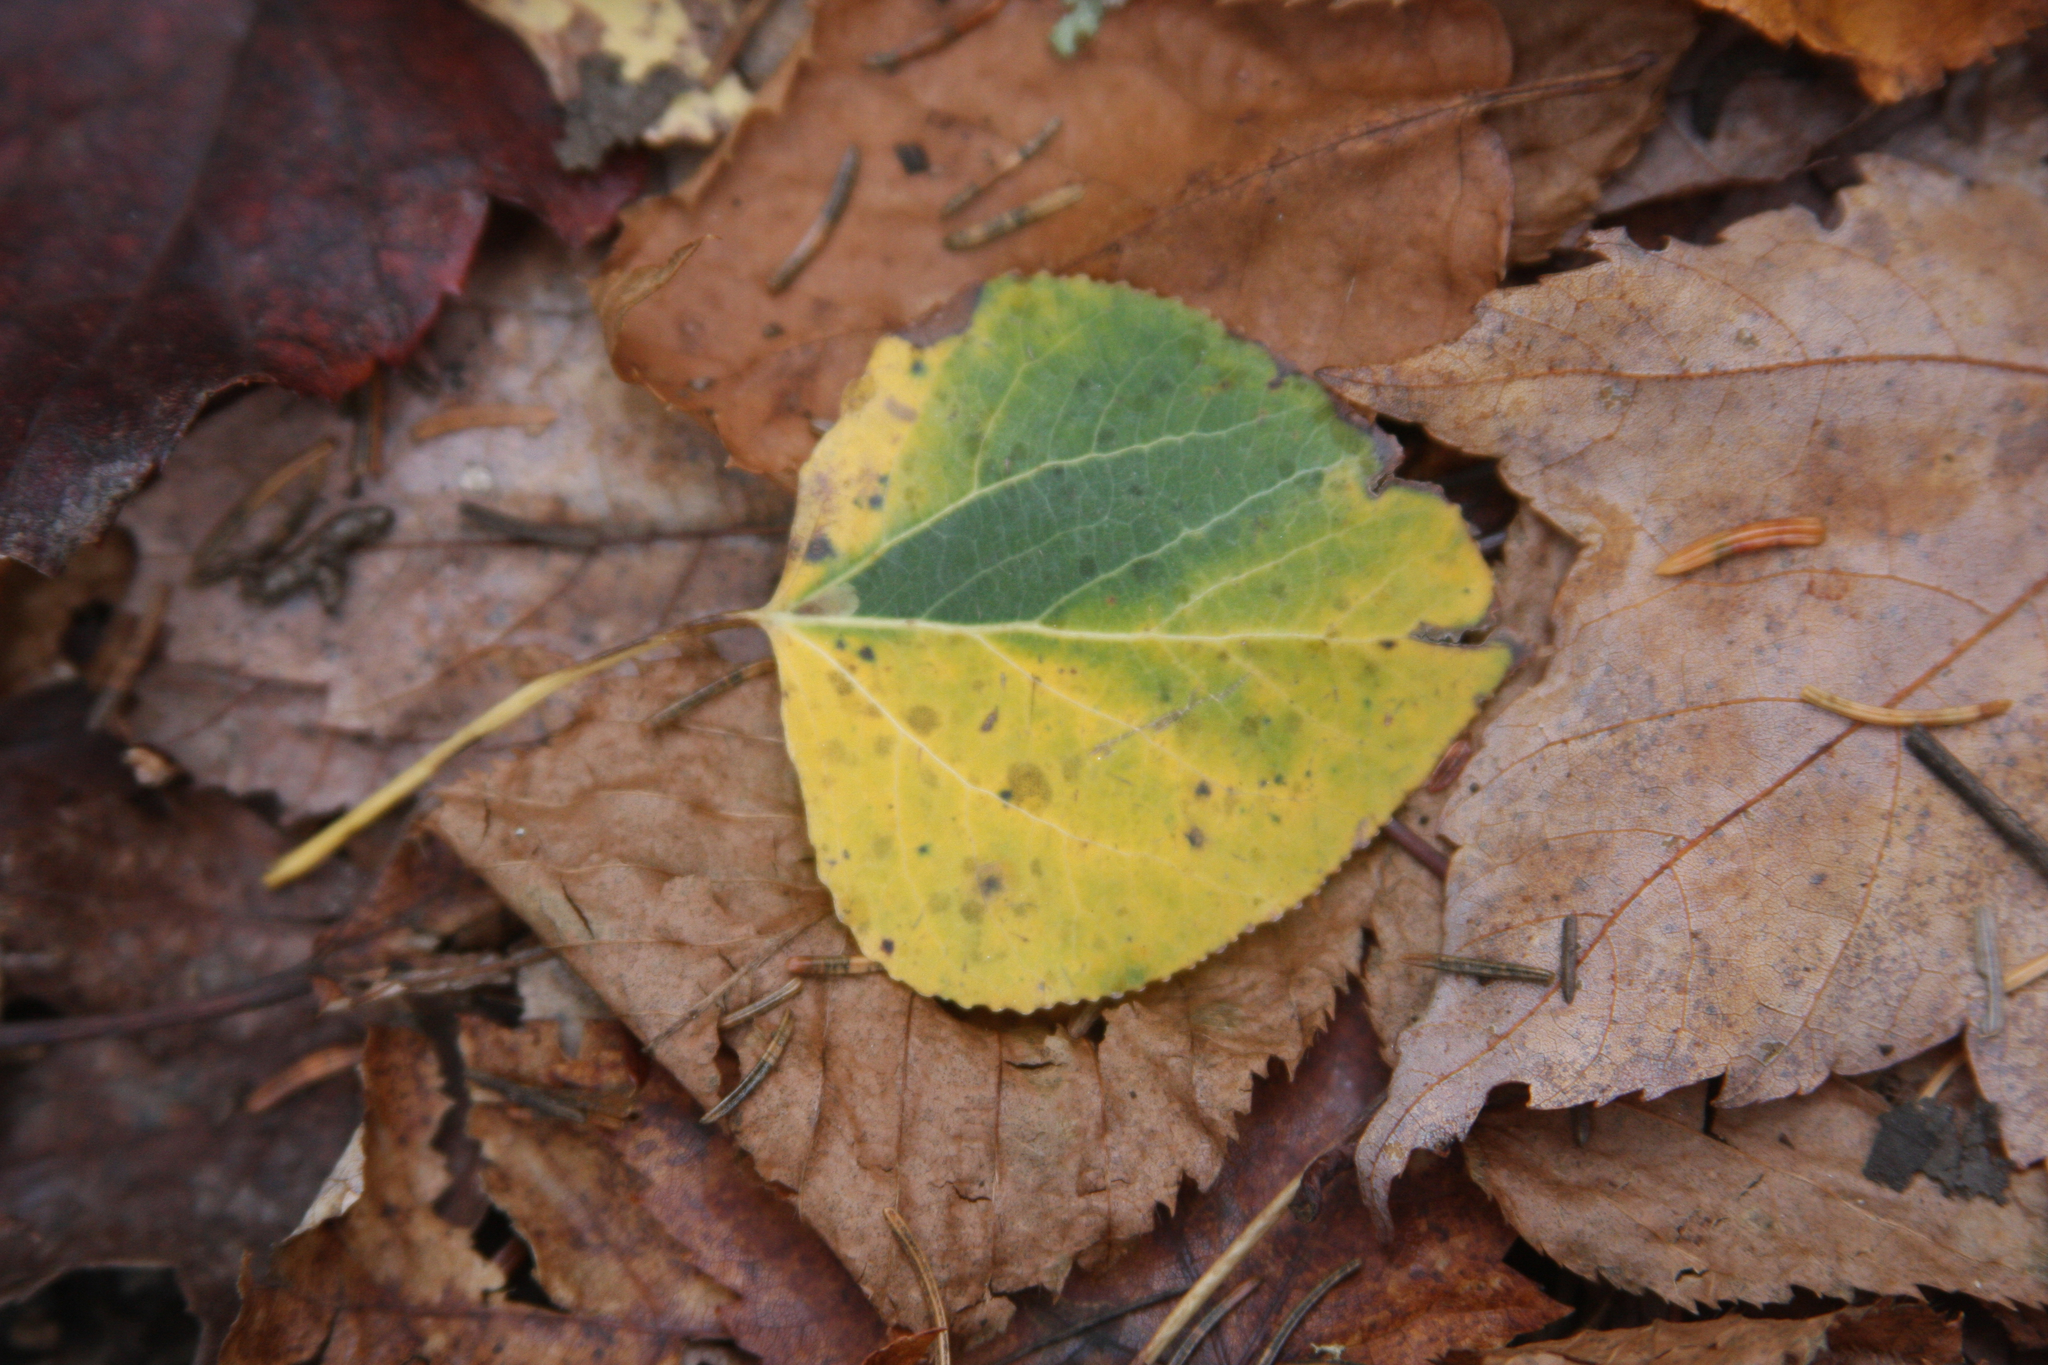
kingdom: Plantae
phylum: Tracheophyta
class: Magnoliopsida
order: Malpighiales
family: Salicaceae
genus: Populus
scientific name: Populus tremuloides
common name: Quaking aspen
